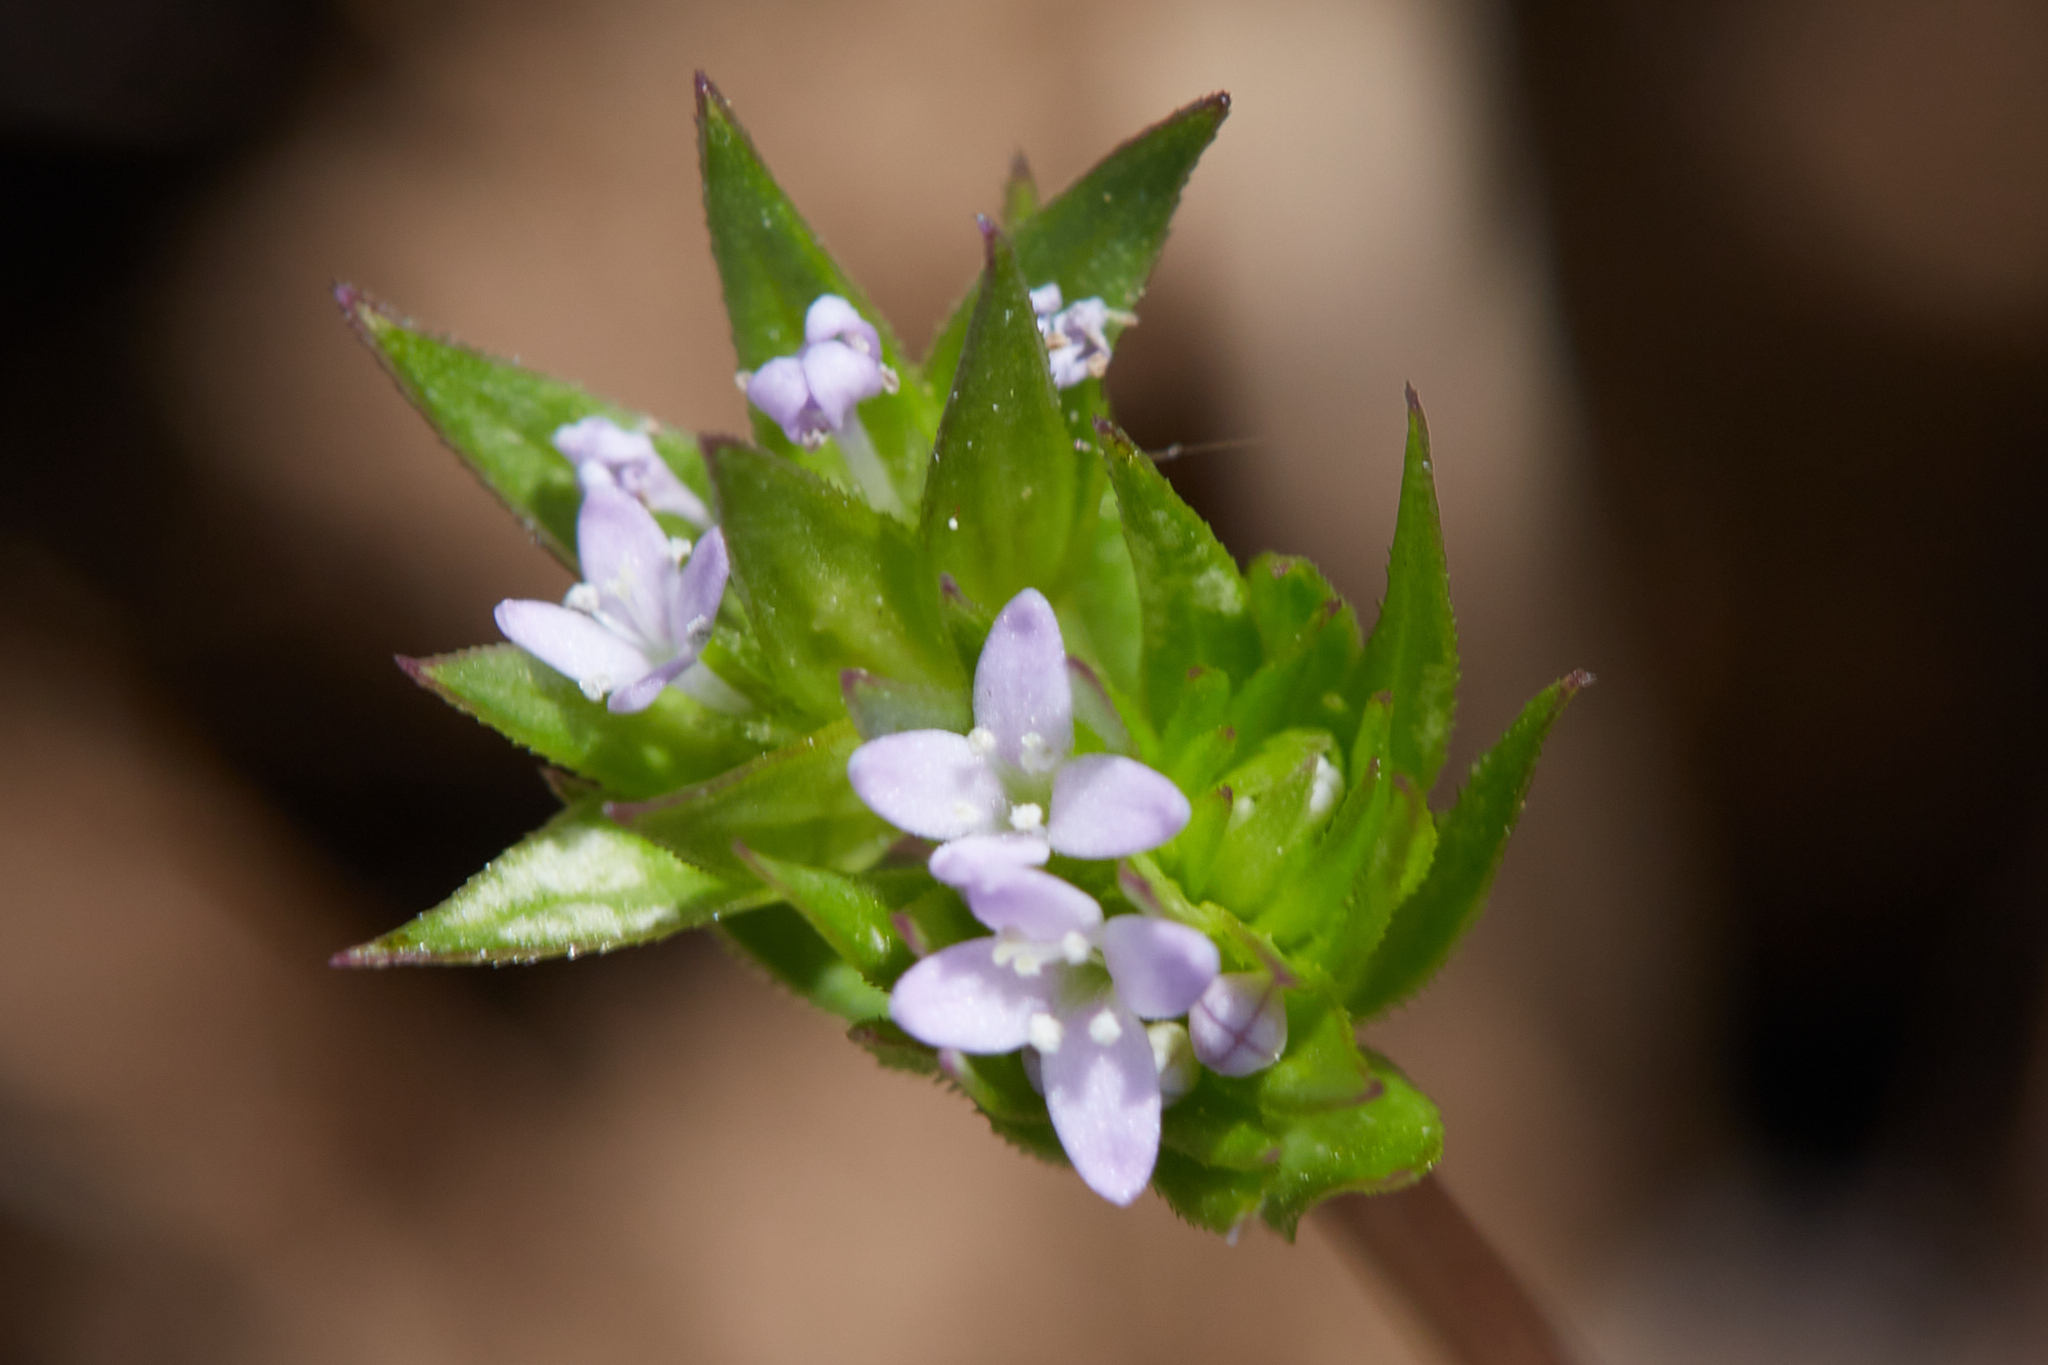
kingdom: Plantae
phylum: Tracheophyta
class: Magnoliopsida
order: Gentianales
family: Rubiaceae
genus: Sherardia
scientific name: Sherardia arvensis
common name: Field madder
